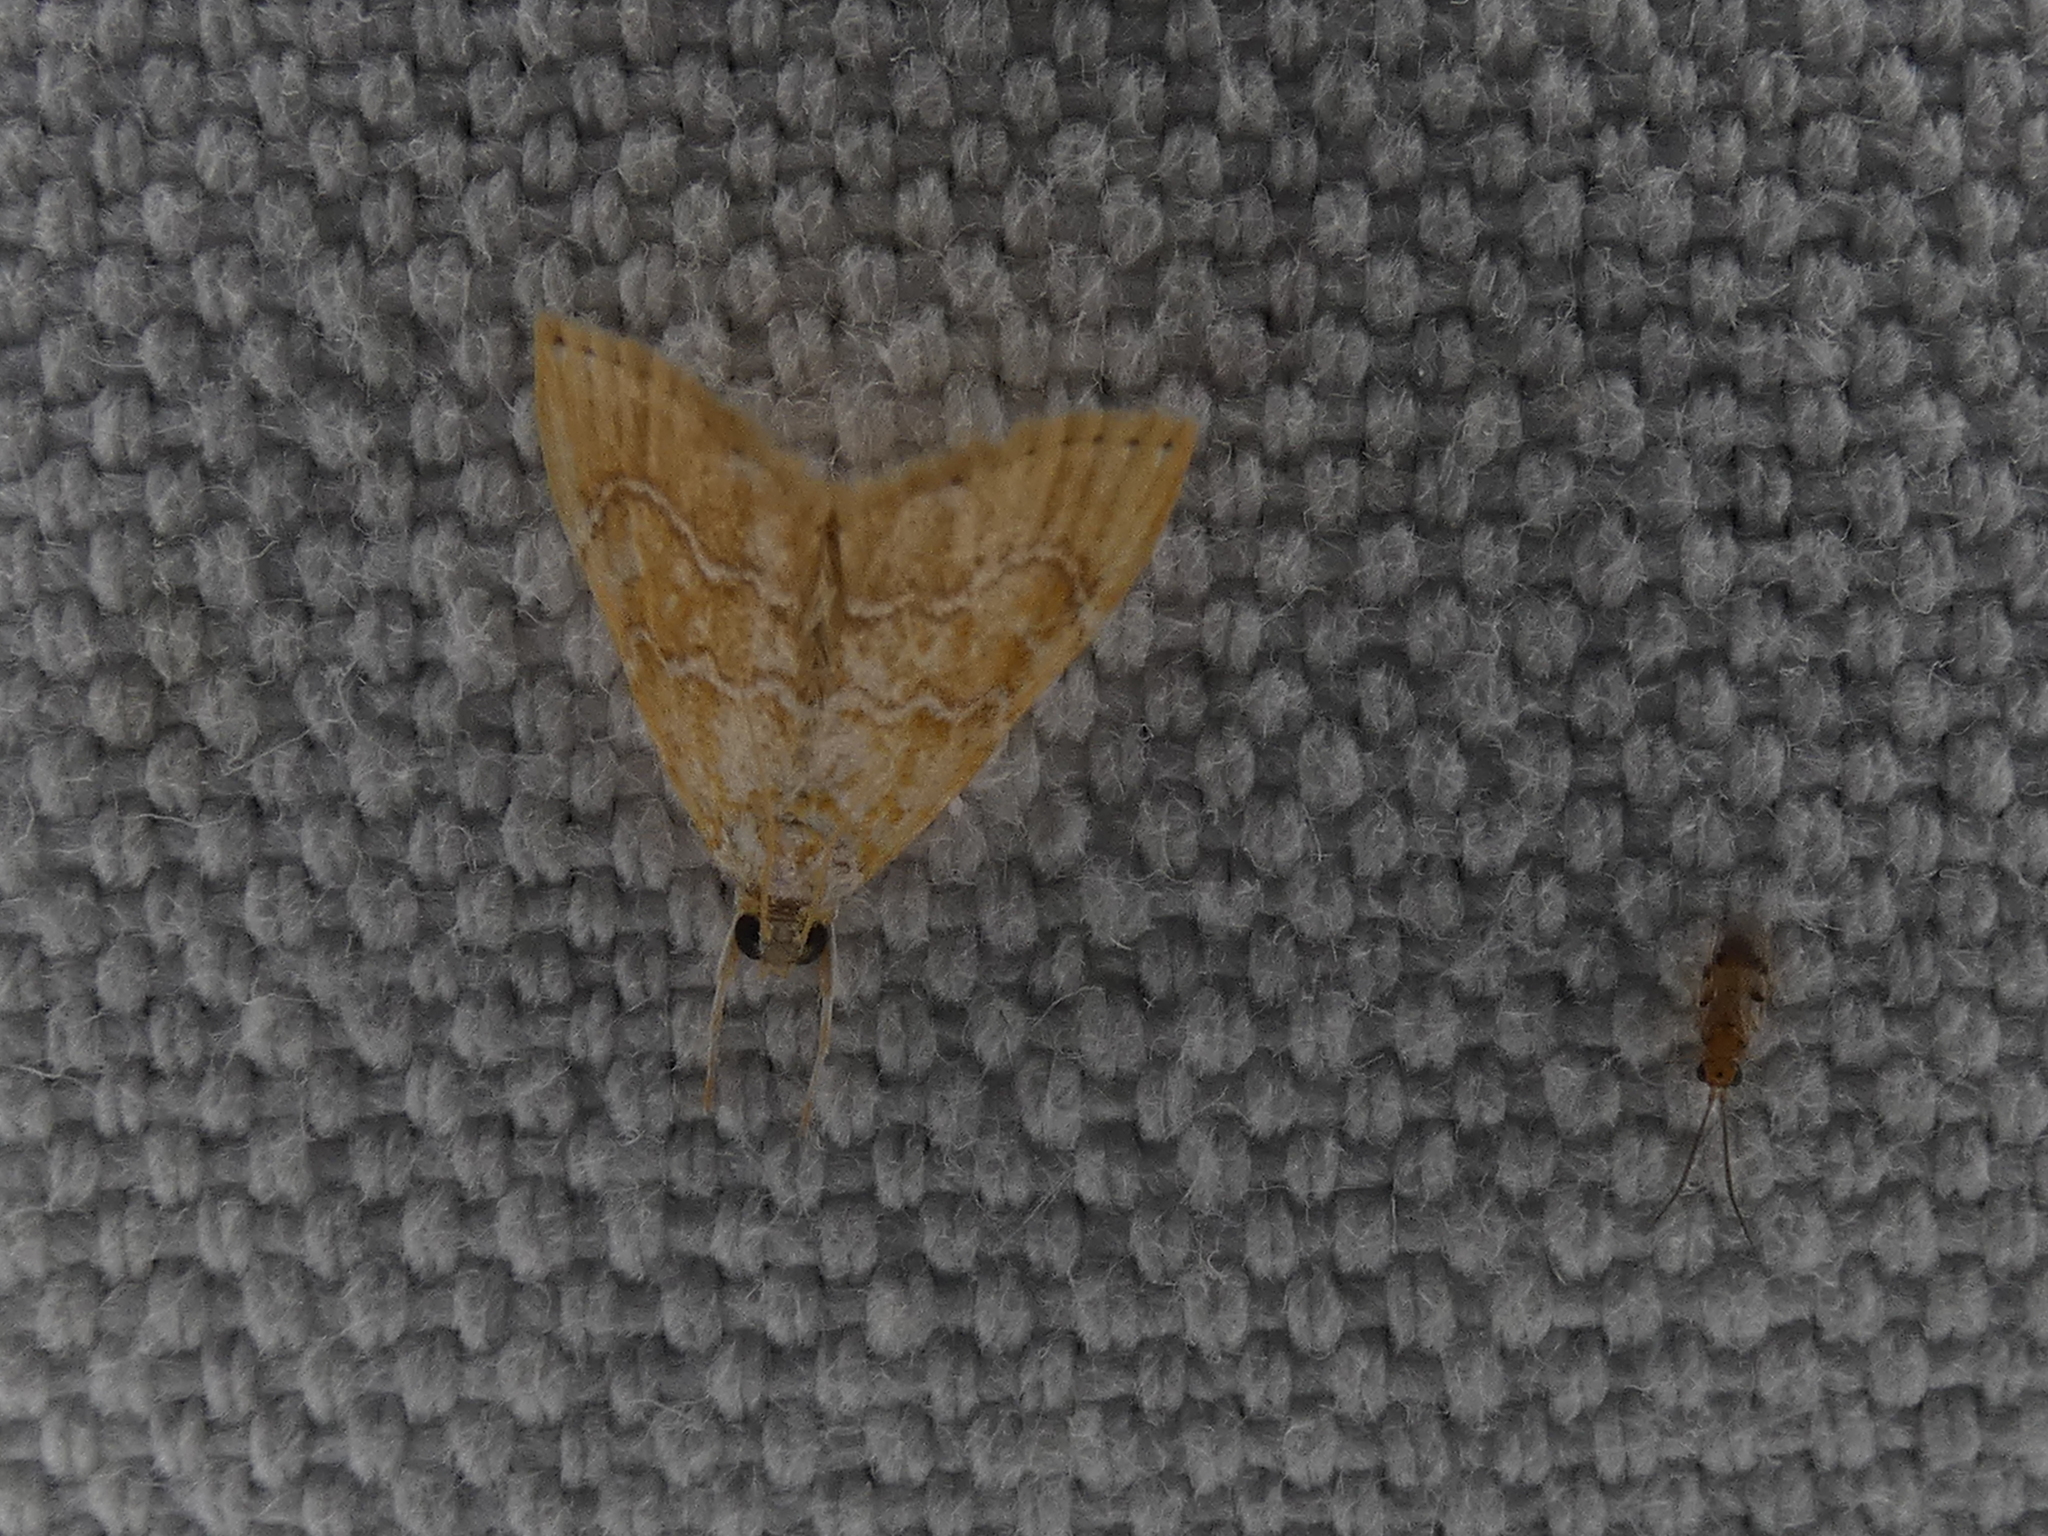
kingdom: Animalia
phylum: Arthropoda
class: Insecta
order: Lepidoptera
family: Crambidae
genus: Glaphyria
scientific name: Glaphyria sesquistrialis
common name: White-roped glaphyria
